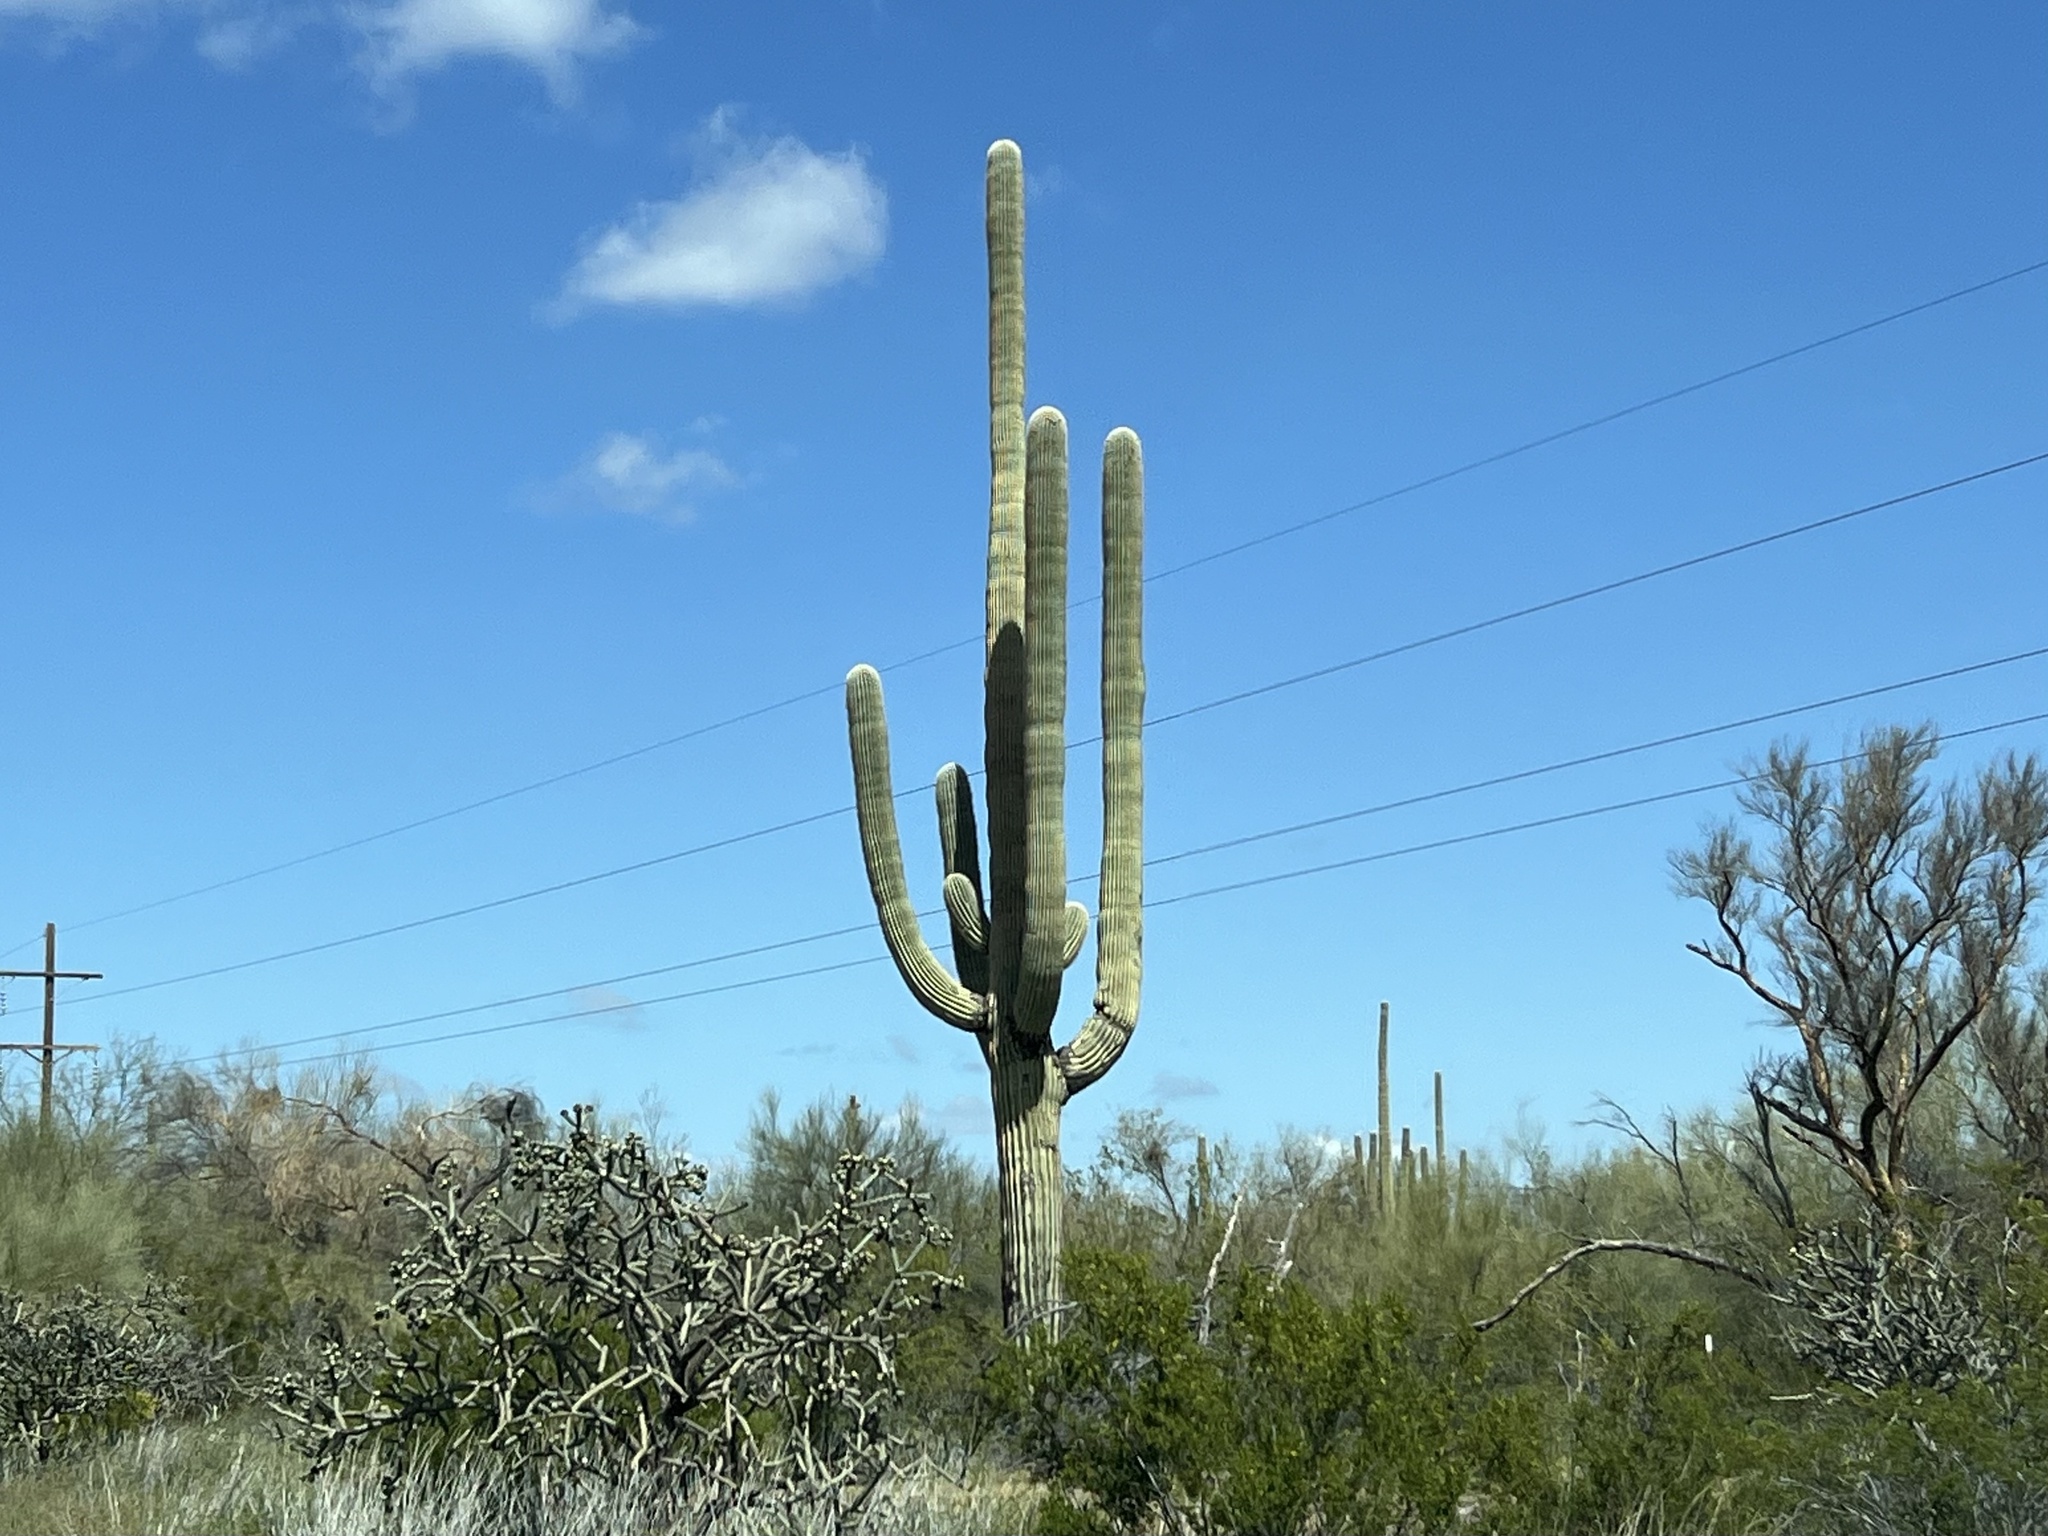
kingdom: Plantae
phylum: Tracheophyta
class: Magnoliopsida
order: Caryophyllales
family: Cactaceae
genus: Carnegiea
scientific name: Carnegiea gigantea
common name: Saguaro
